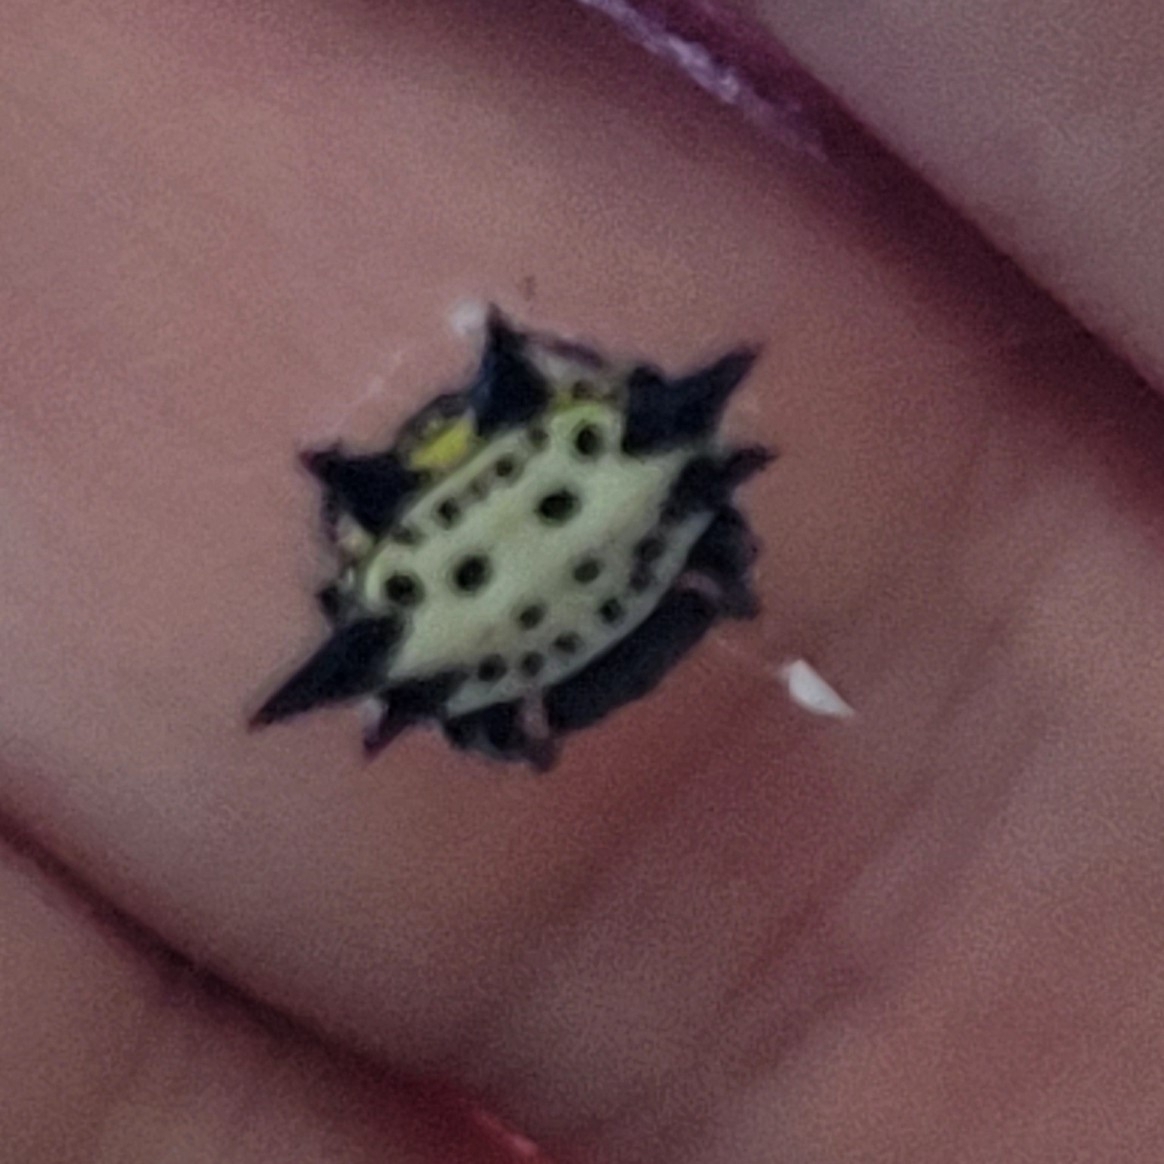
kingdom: Animalia
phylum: Arthropoda
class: Arachnida
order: Araneae
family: Araneidae
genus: Gasteracantha
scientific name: Gasteracantha cancriformis
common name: Orb weavers
